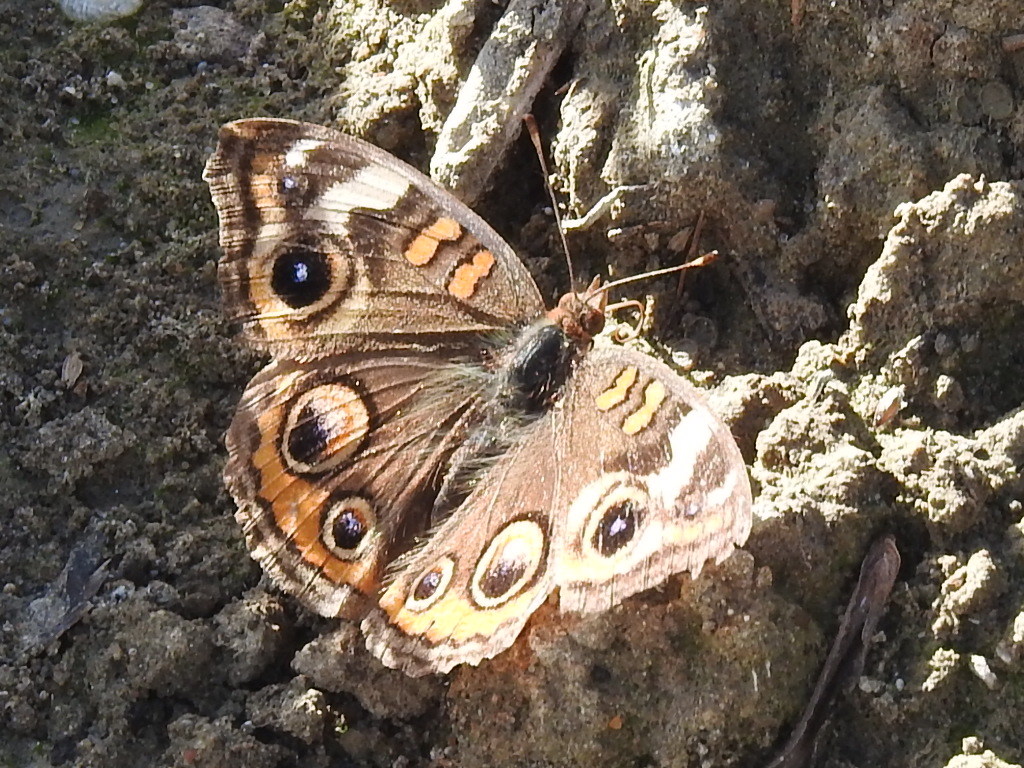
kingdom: Animalia
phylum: Arthropoda
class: Insecta
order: Lepidoptera
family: Nymphalidae
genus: Junonia
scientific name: Junonia coenia
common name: Common buckeye
